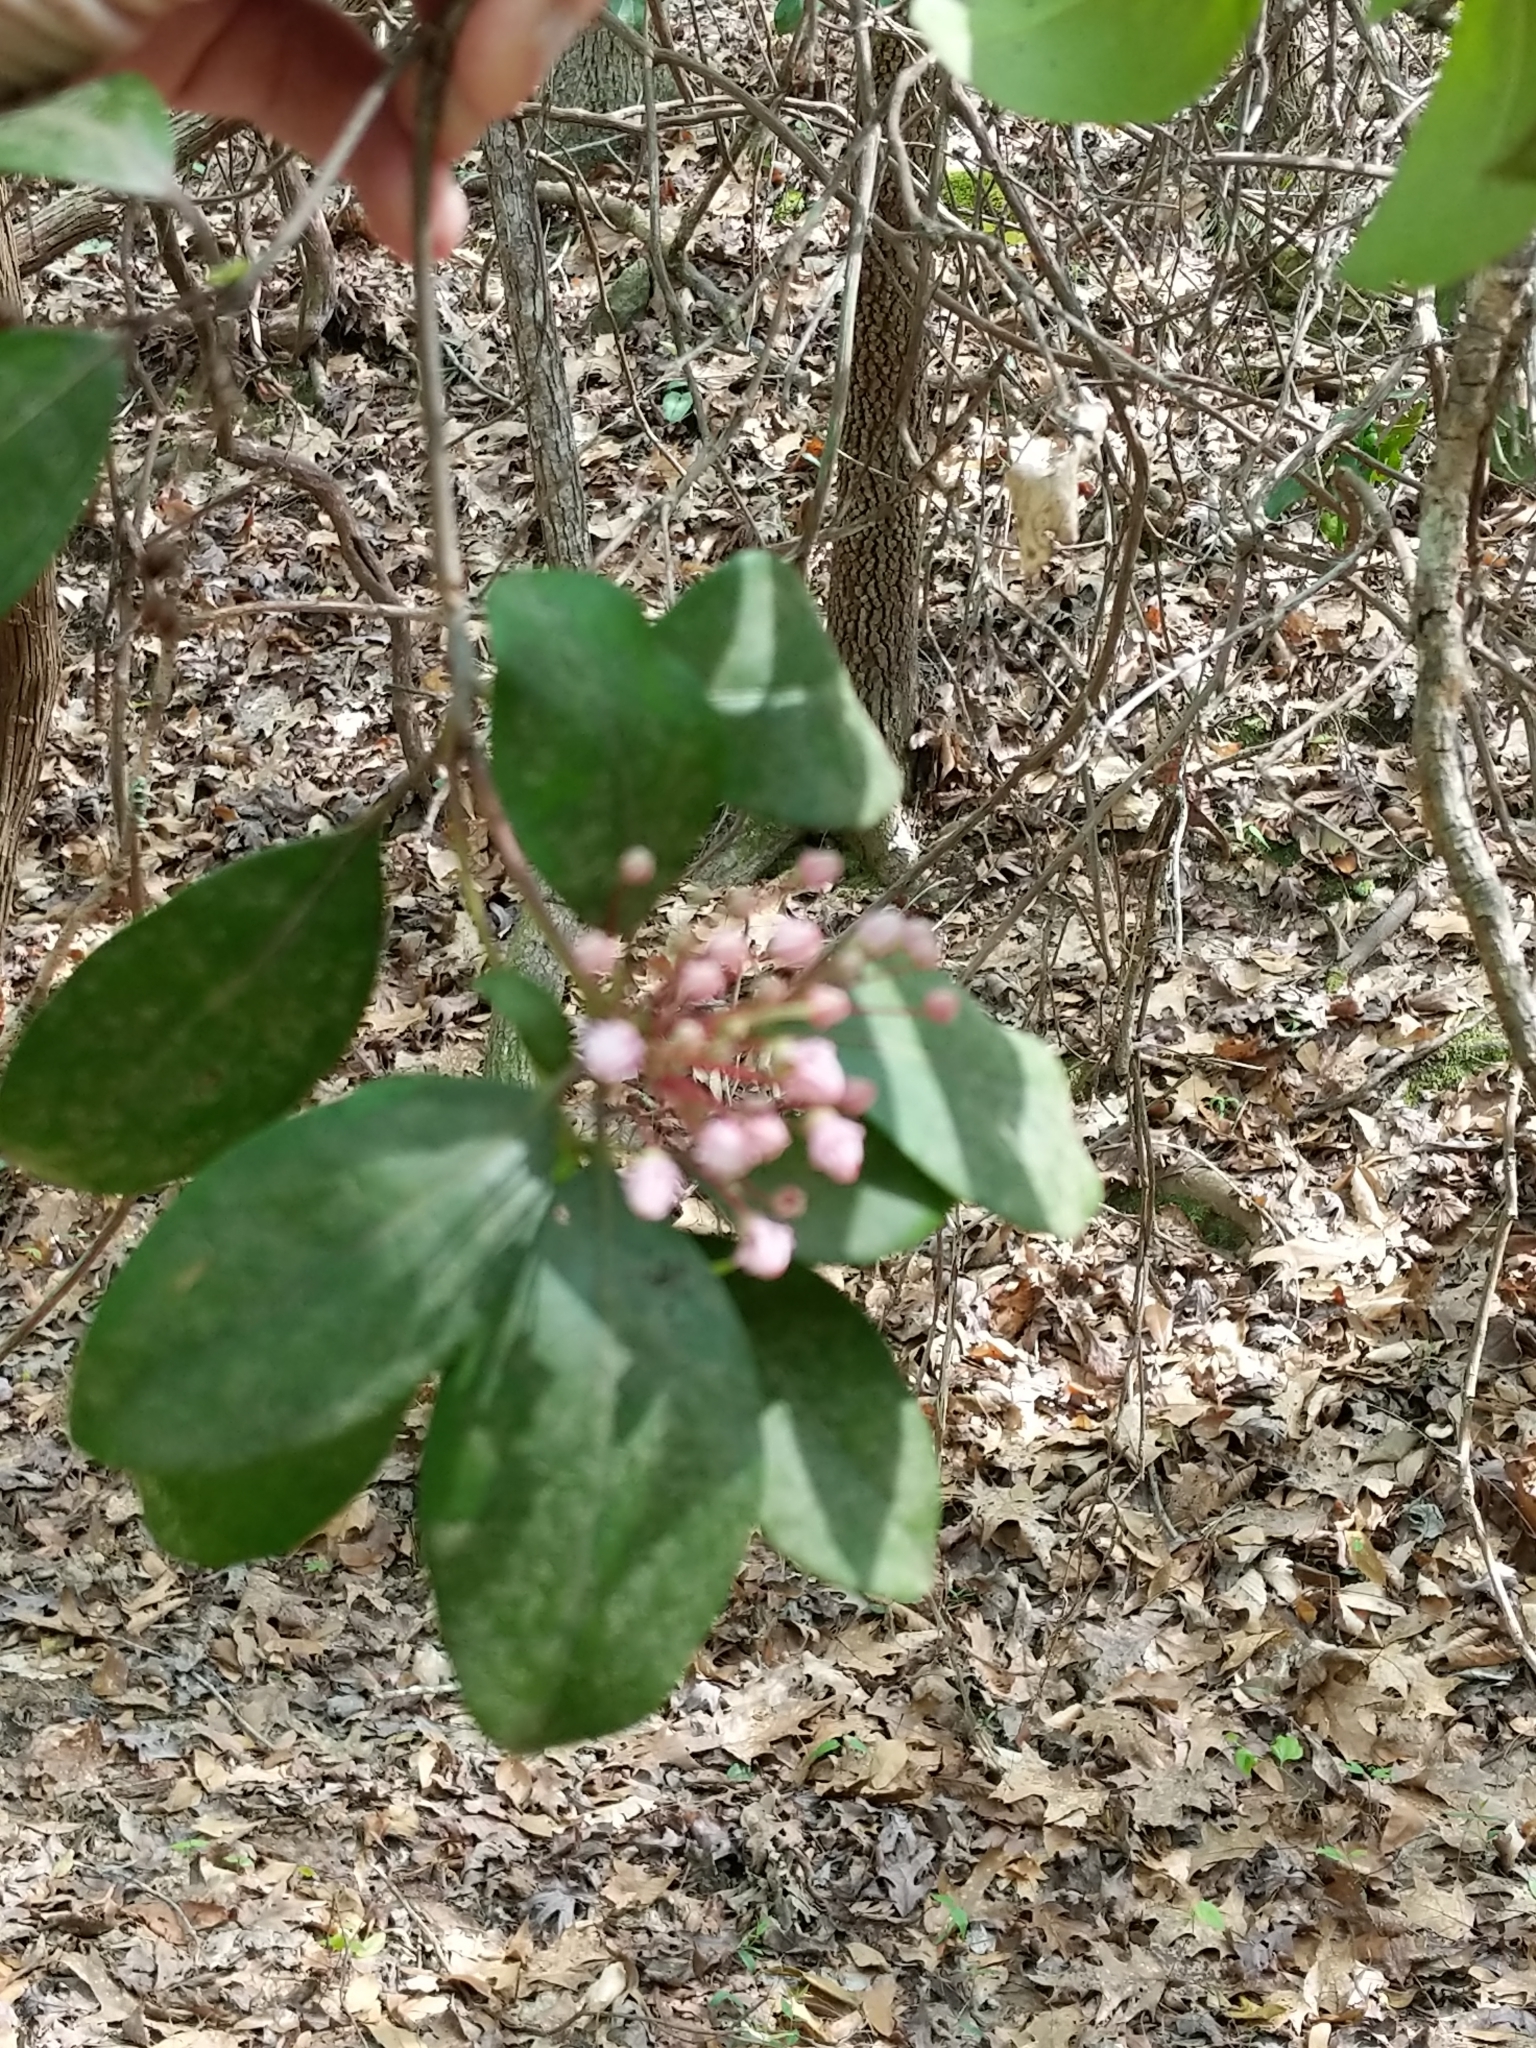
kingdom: Plantae
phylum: Tracheophyta
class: Magnoliopsida
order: Ericales
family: Ericaceae
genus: Kalmia
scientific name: Kalmia latifolia
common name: Mountain-laurel
